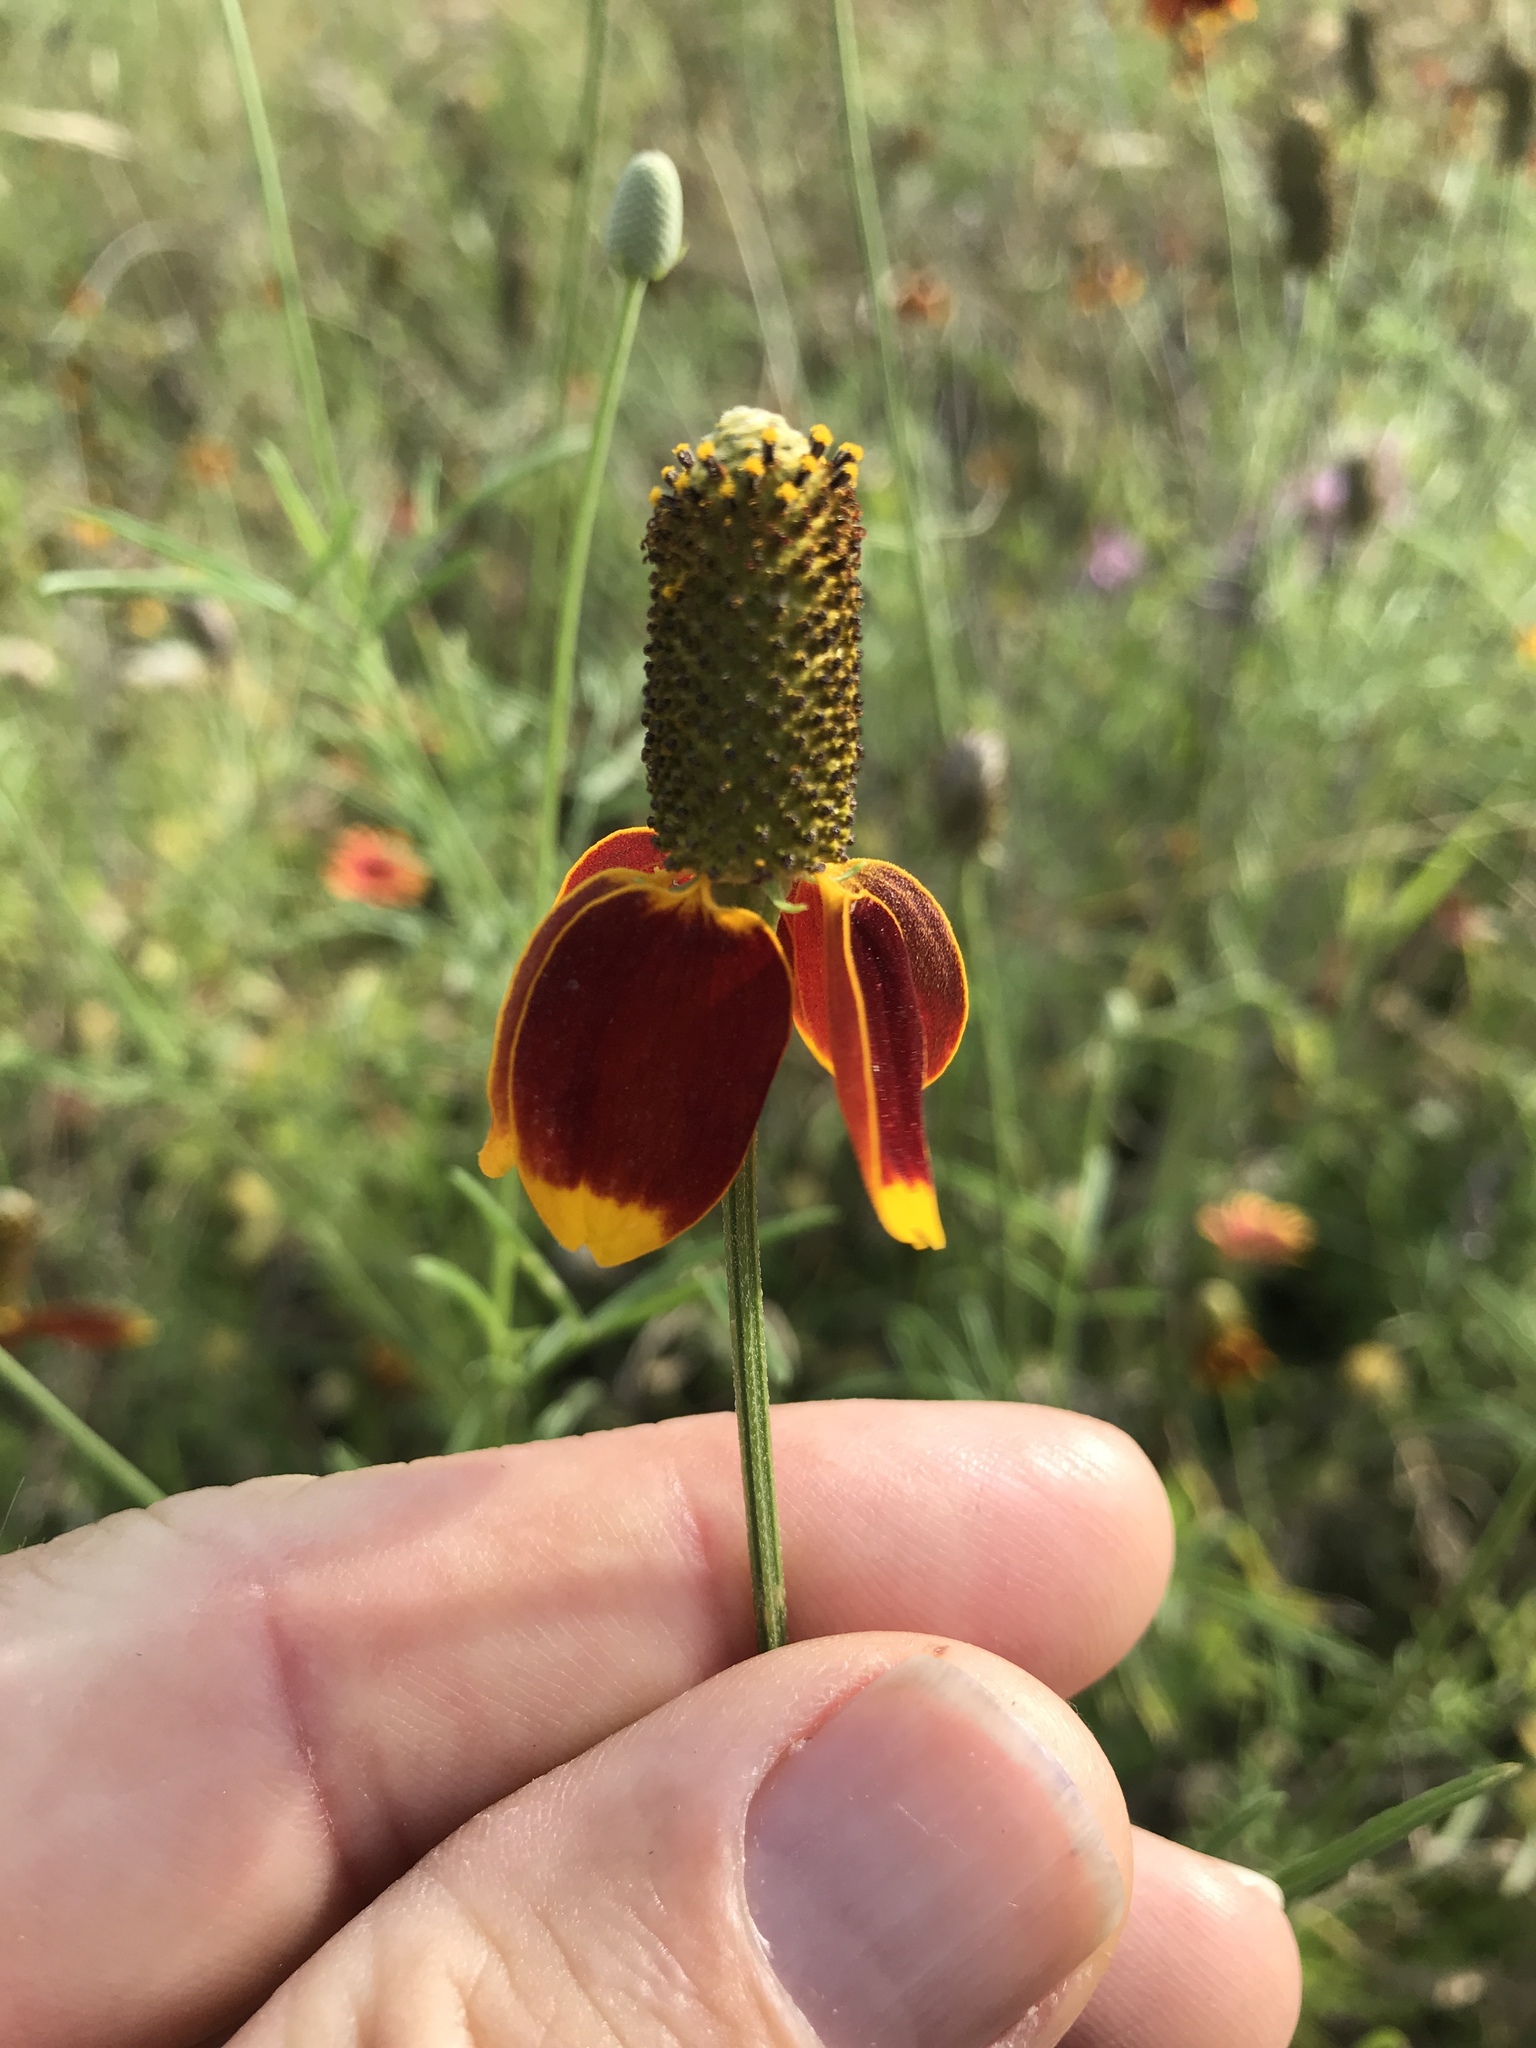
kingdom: Plantae
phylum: Tracheophyta
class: Magnoliopsida
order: Asterales
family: Asteraceae
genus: Ratibida
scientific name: Ratibida columnifera
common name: Prairie coneflower
